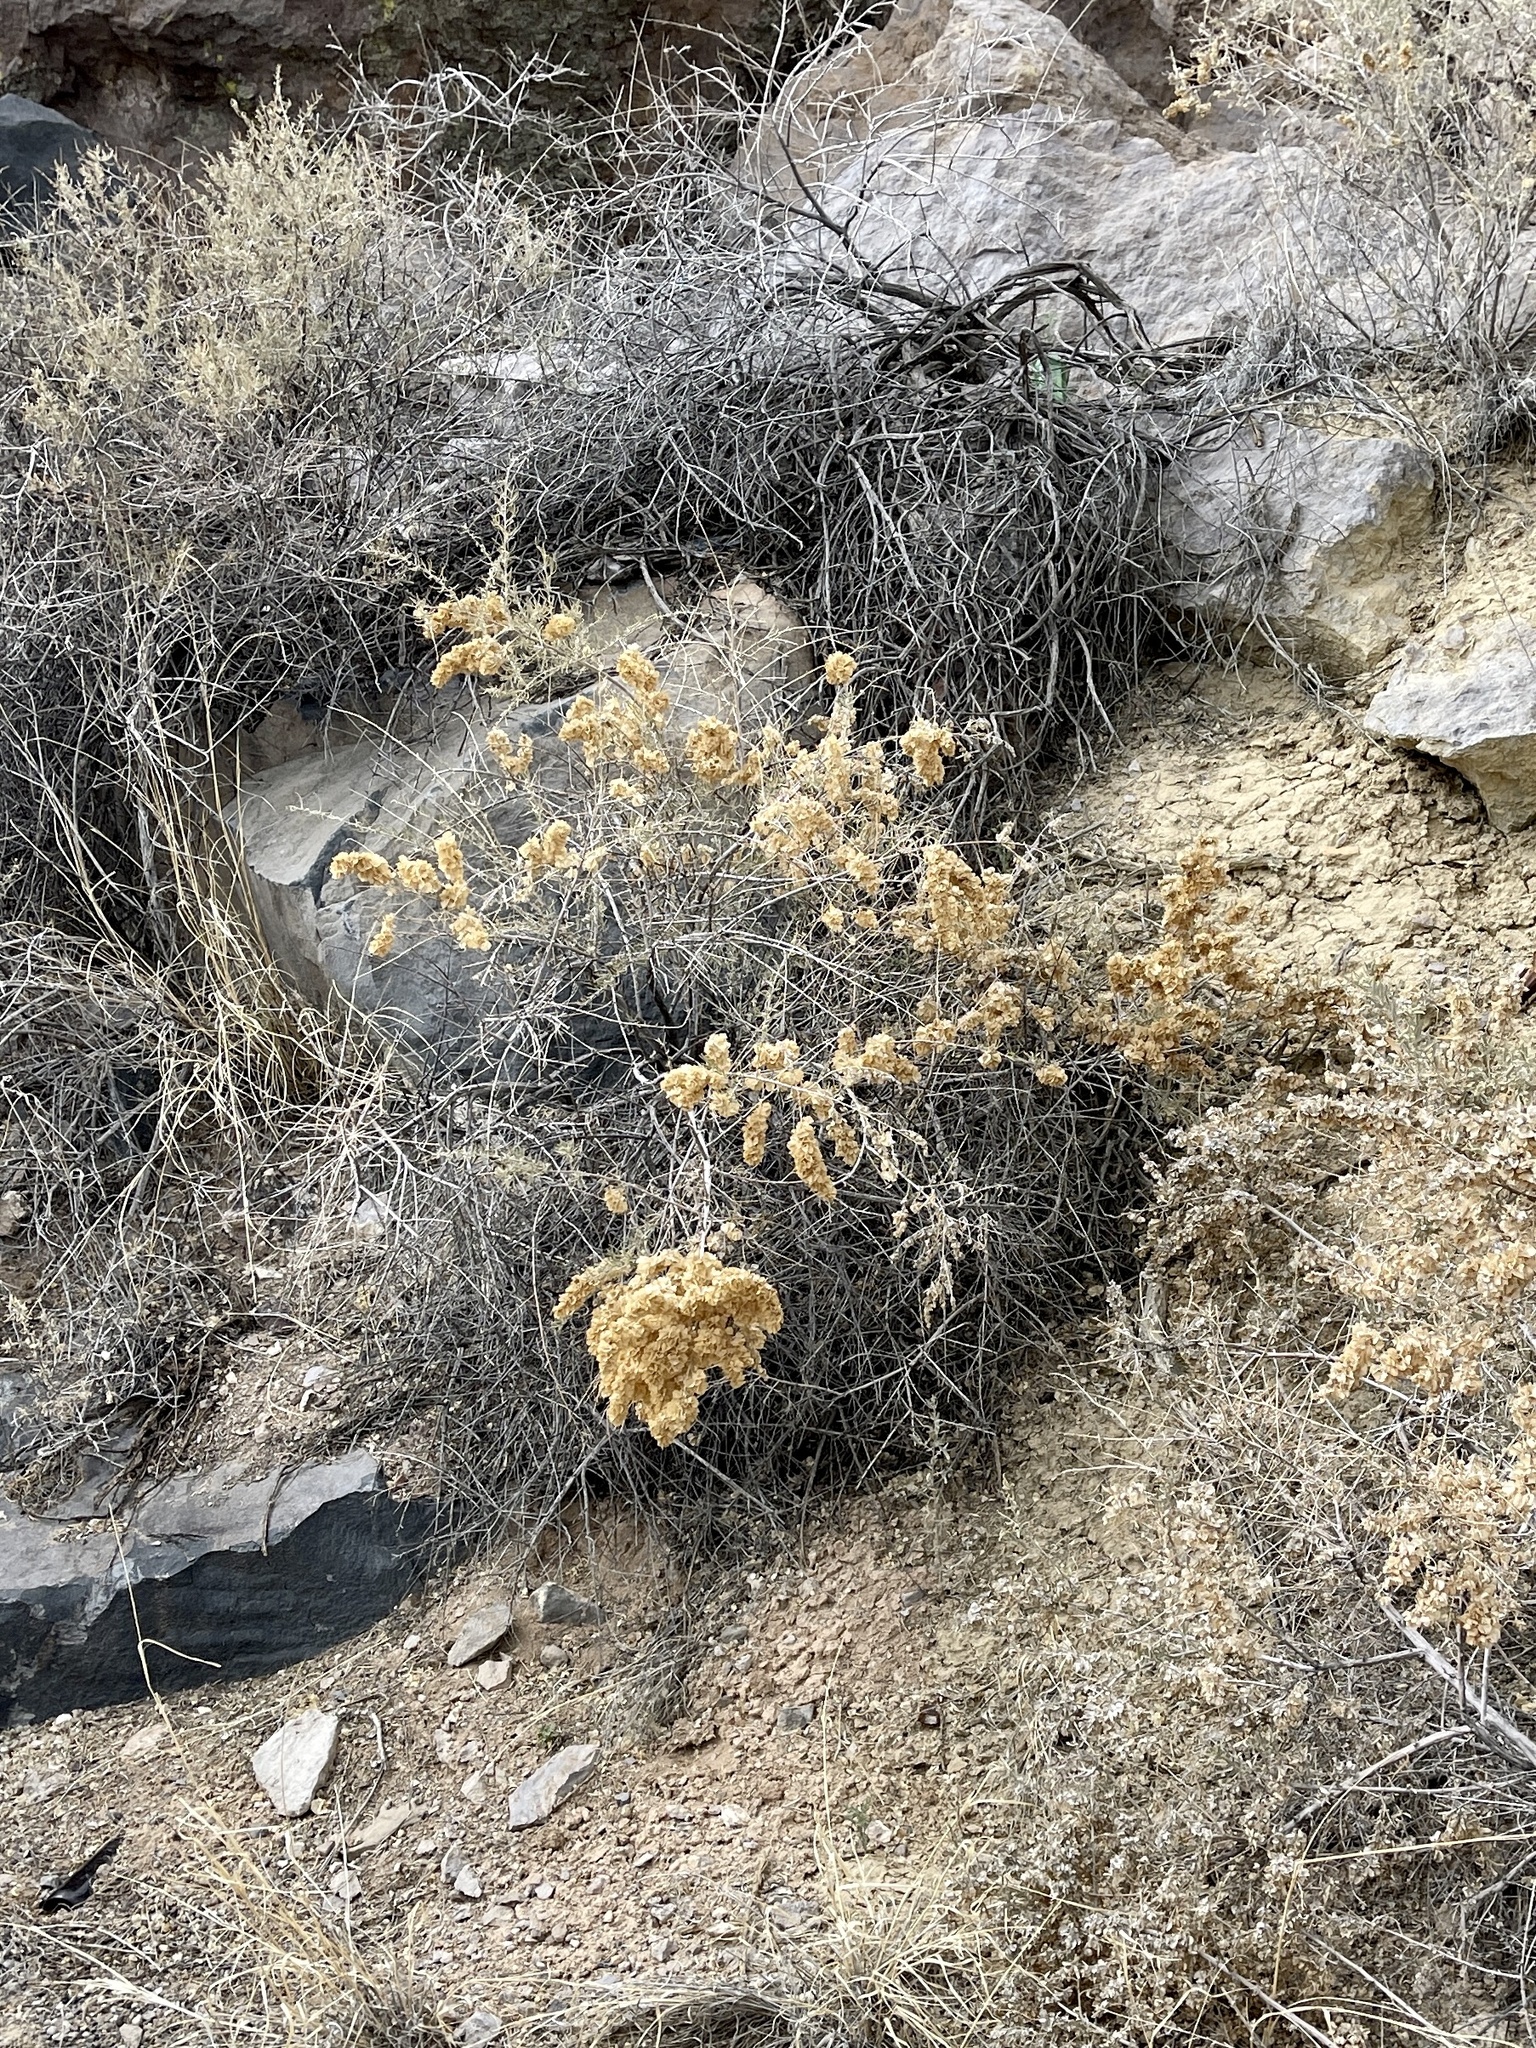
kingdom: Plantae
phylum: Tracheophyta
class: Magnoliopsida
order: Caryophyllales
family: Amaranthaceae
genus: Atriplex
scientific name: Atriplex canescens
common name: Four-wing saltbush
